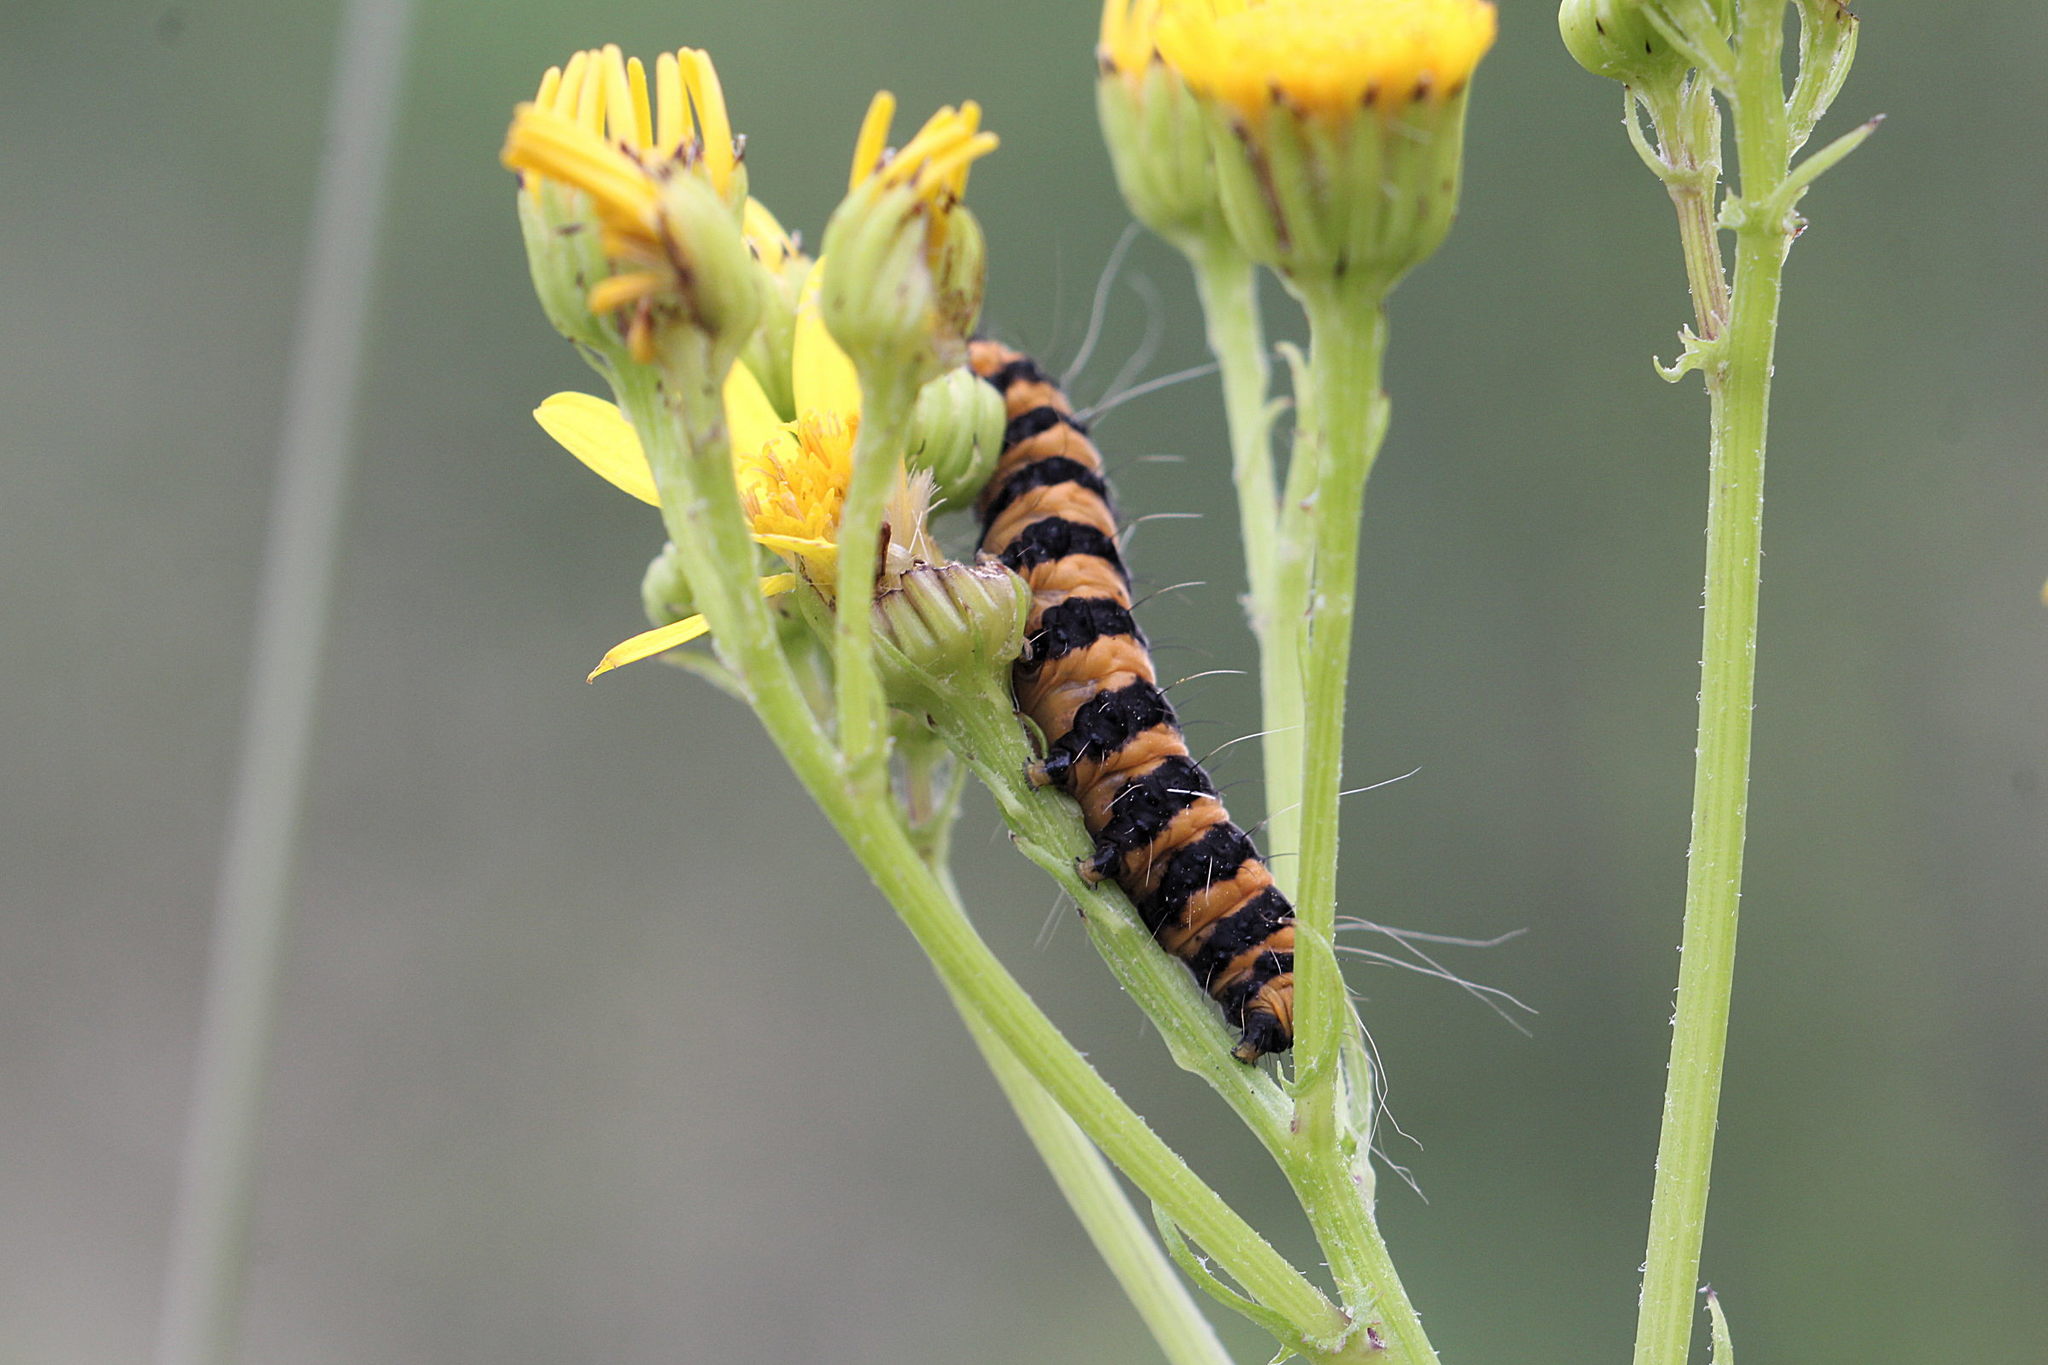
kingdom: Animalia
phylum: Arthropoda
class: Insecta
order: Lepidoptera
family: Erebidae
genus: Tyria
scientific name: Tyria jacobaeae
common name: Cinnabar
